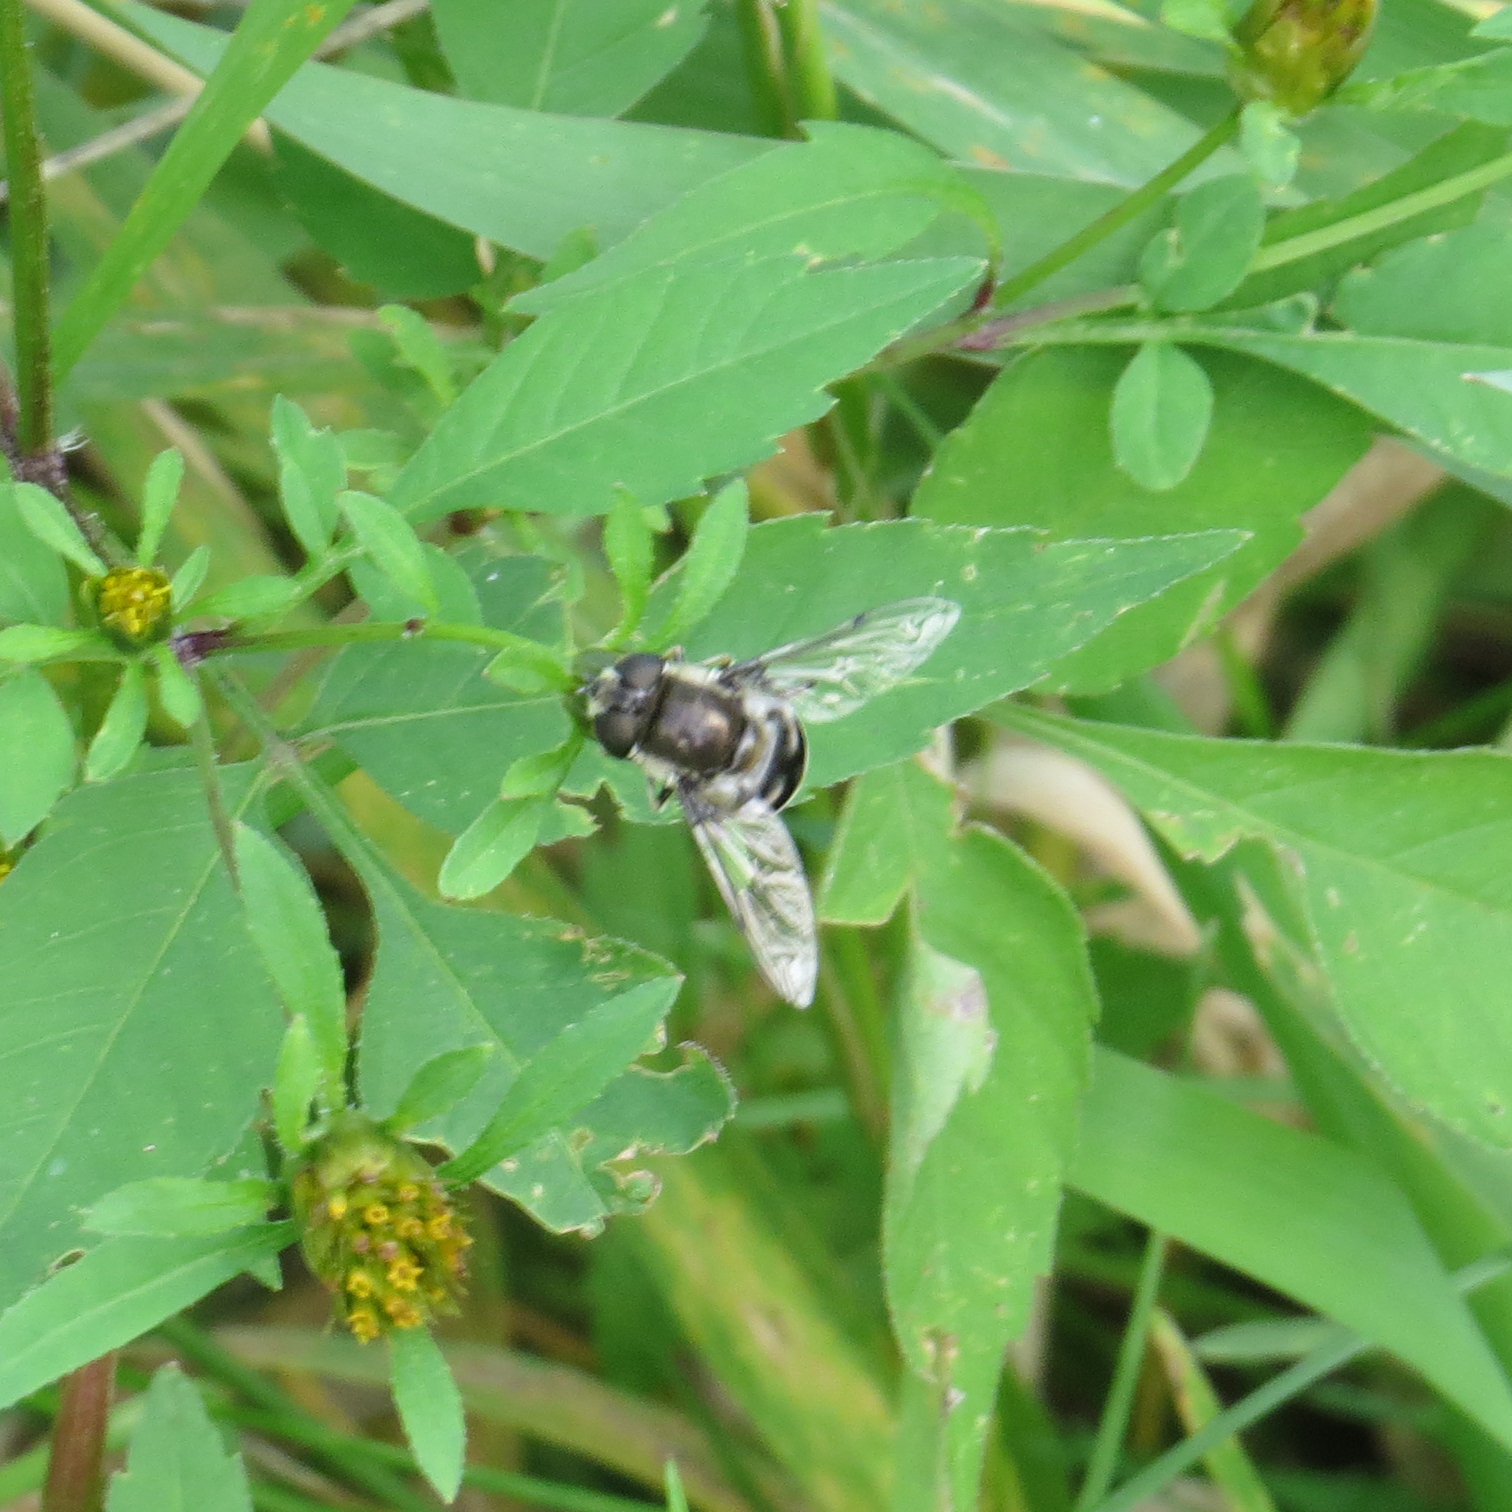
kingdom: Animalia
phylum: Arthropoda
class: Insecta
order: Diptera
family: Syrphidae
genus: Eristalis
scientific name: Eristalis dimidiata
